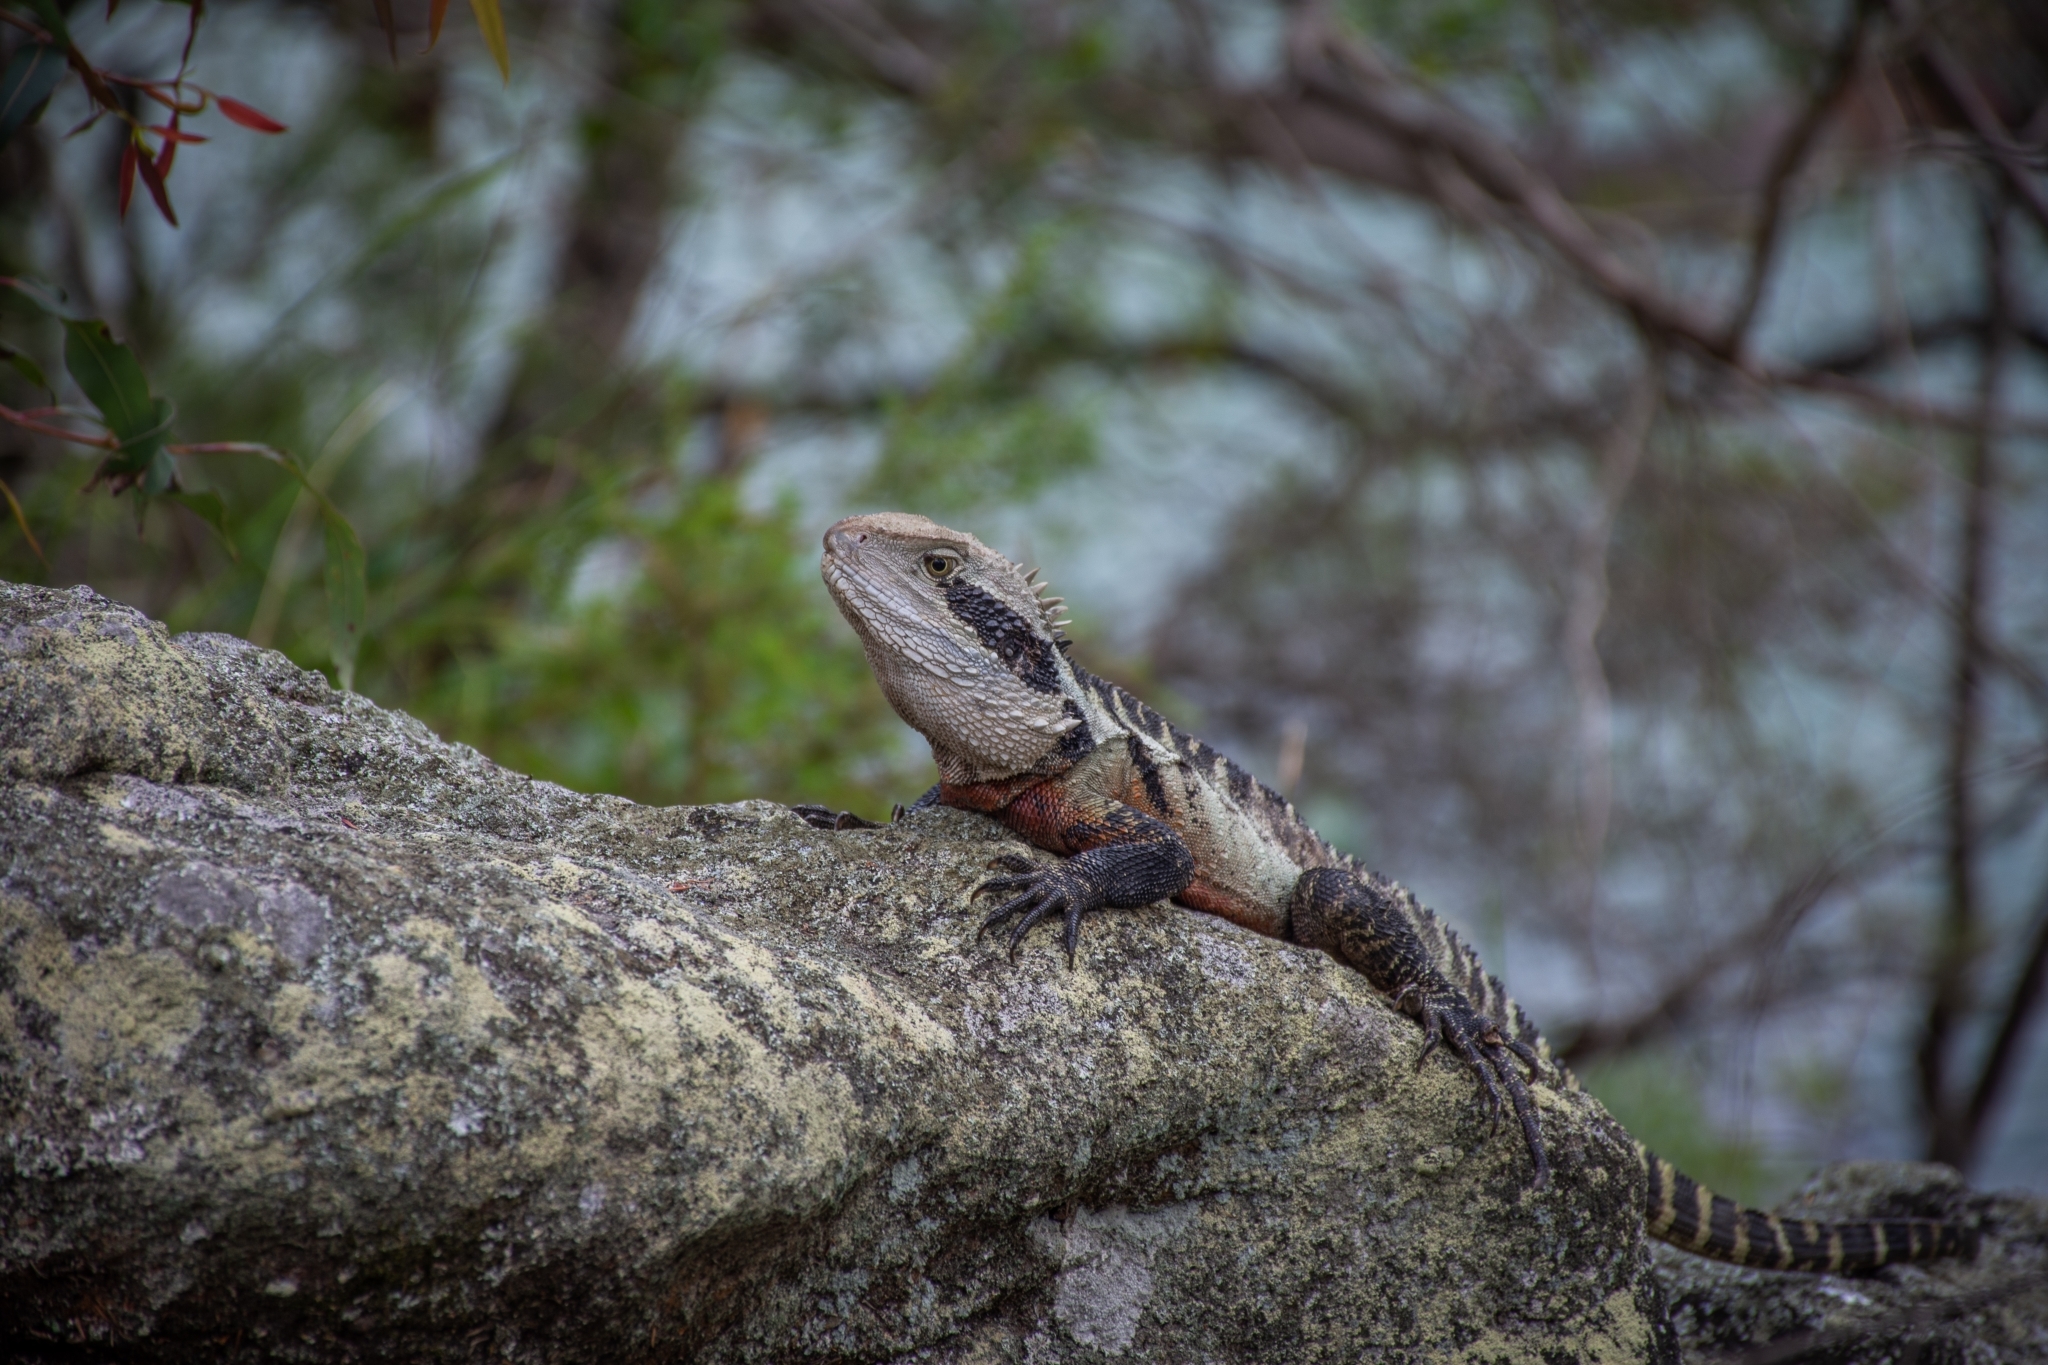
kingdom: Animalia
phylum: Chordata
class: Squamata
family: Agamidae
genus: Intellagama
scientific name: Intellagama lesueurii
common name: Eastern water dragon
